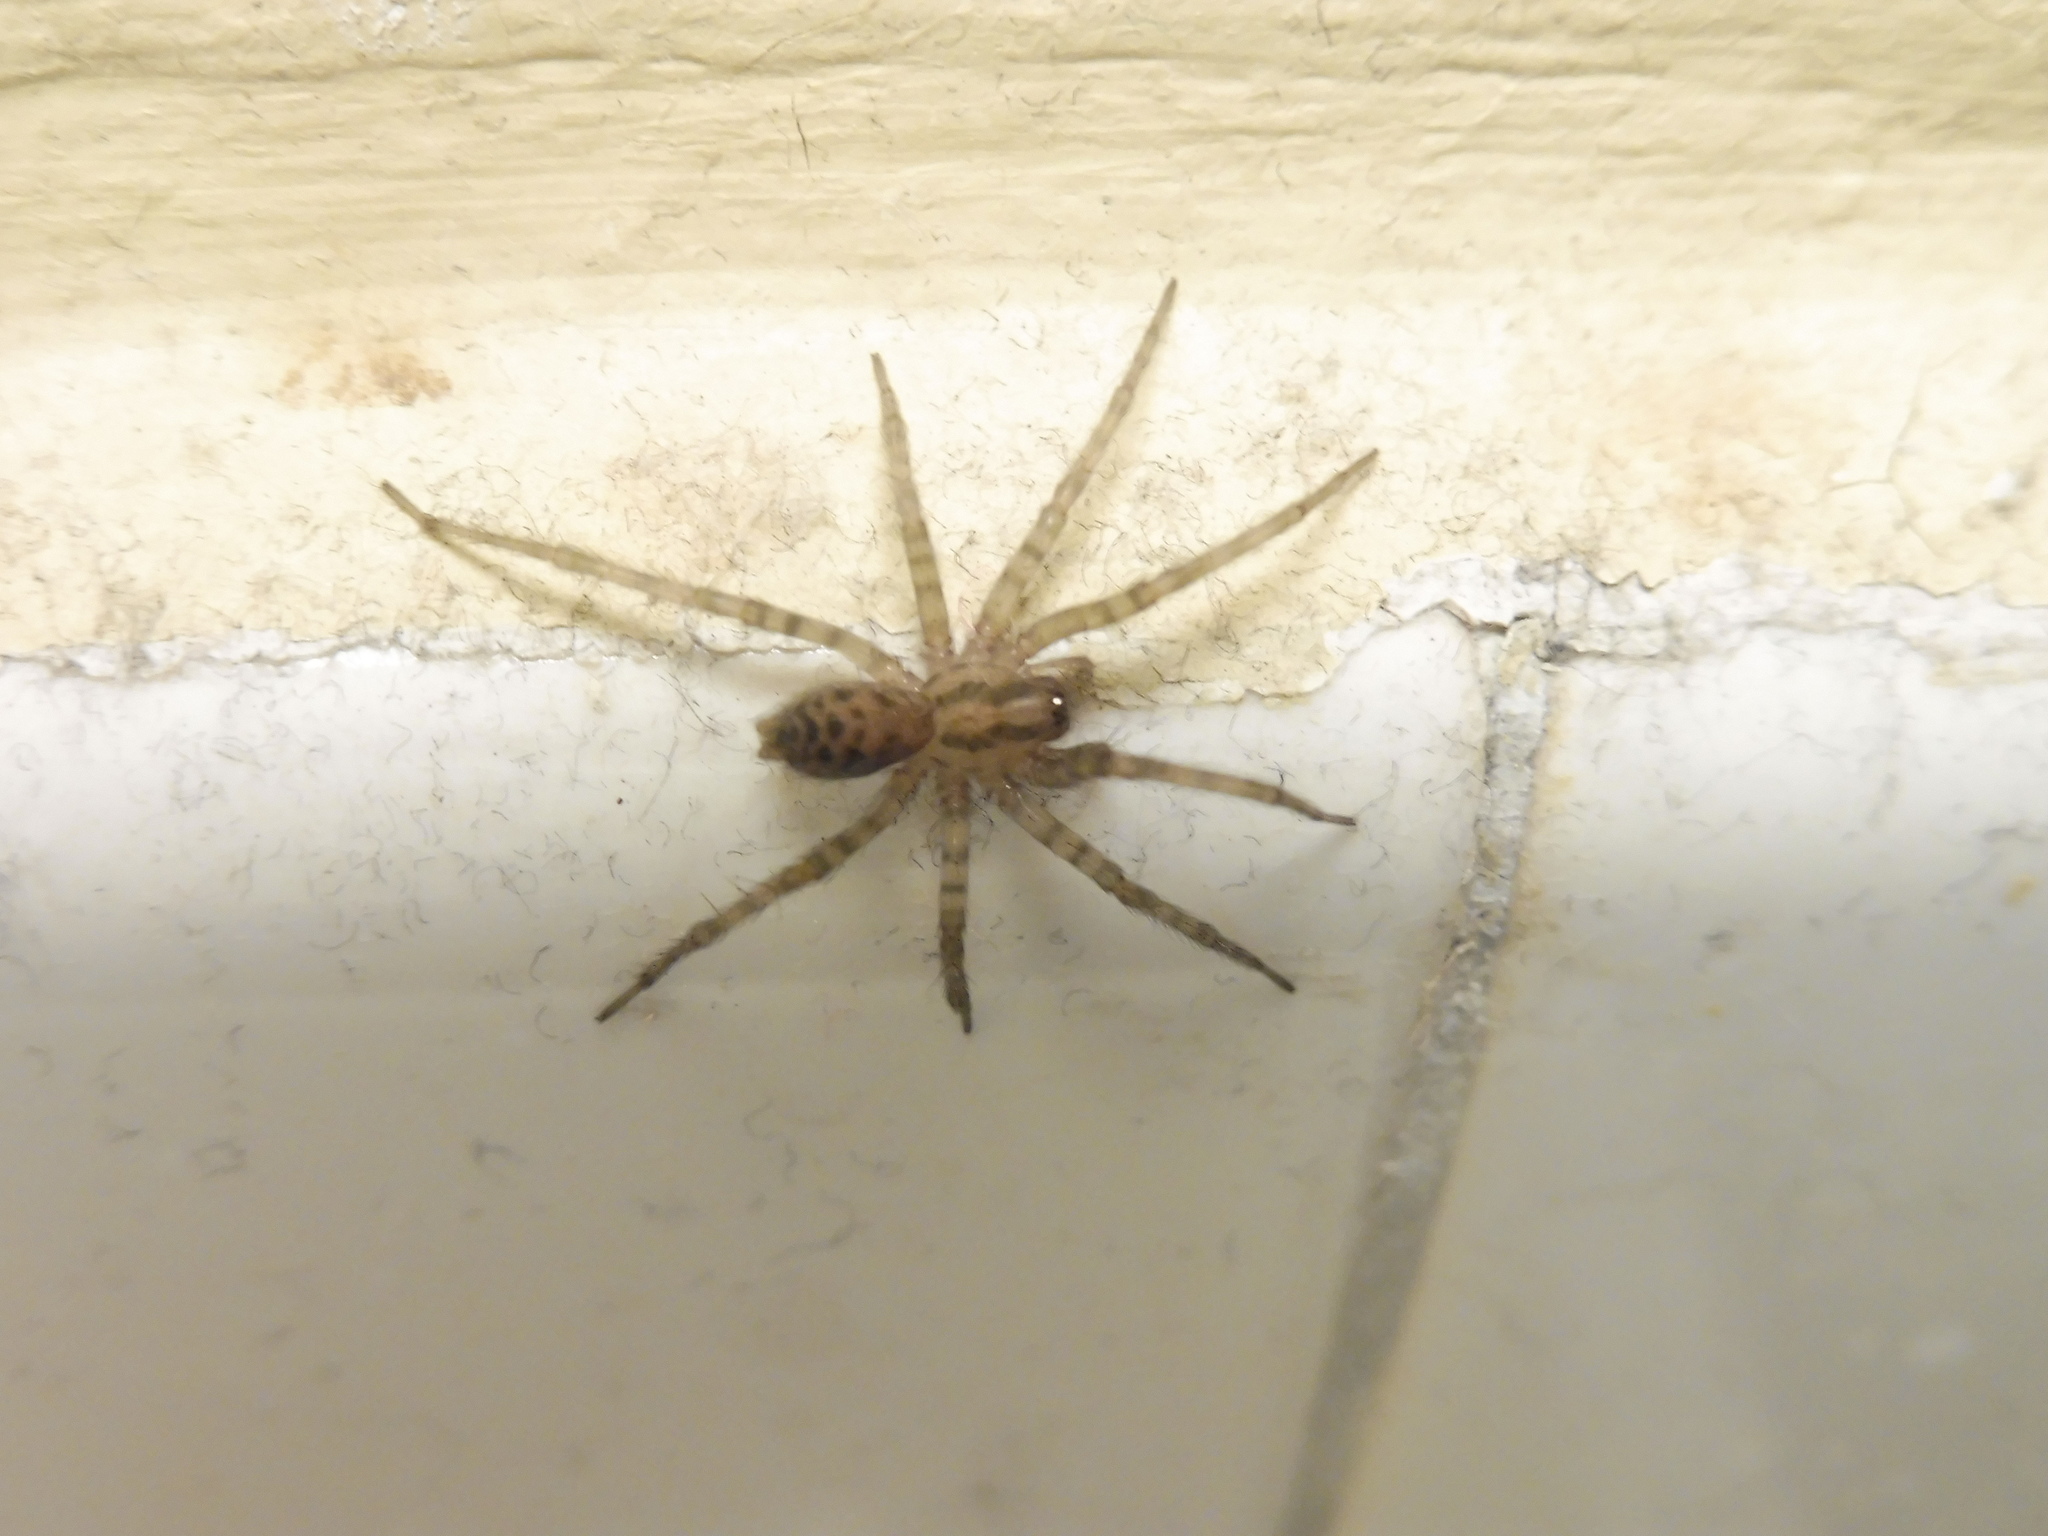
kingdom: Animalia
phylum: Arthropoda
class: Arachnida
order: Araneae
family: Agelenidae
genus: Tegenaria
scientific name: Tegenaria domestica
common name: Barn funnel weaver
